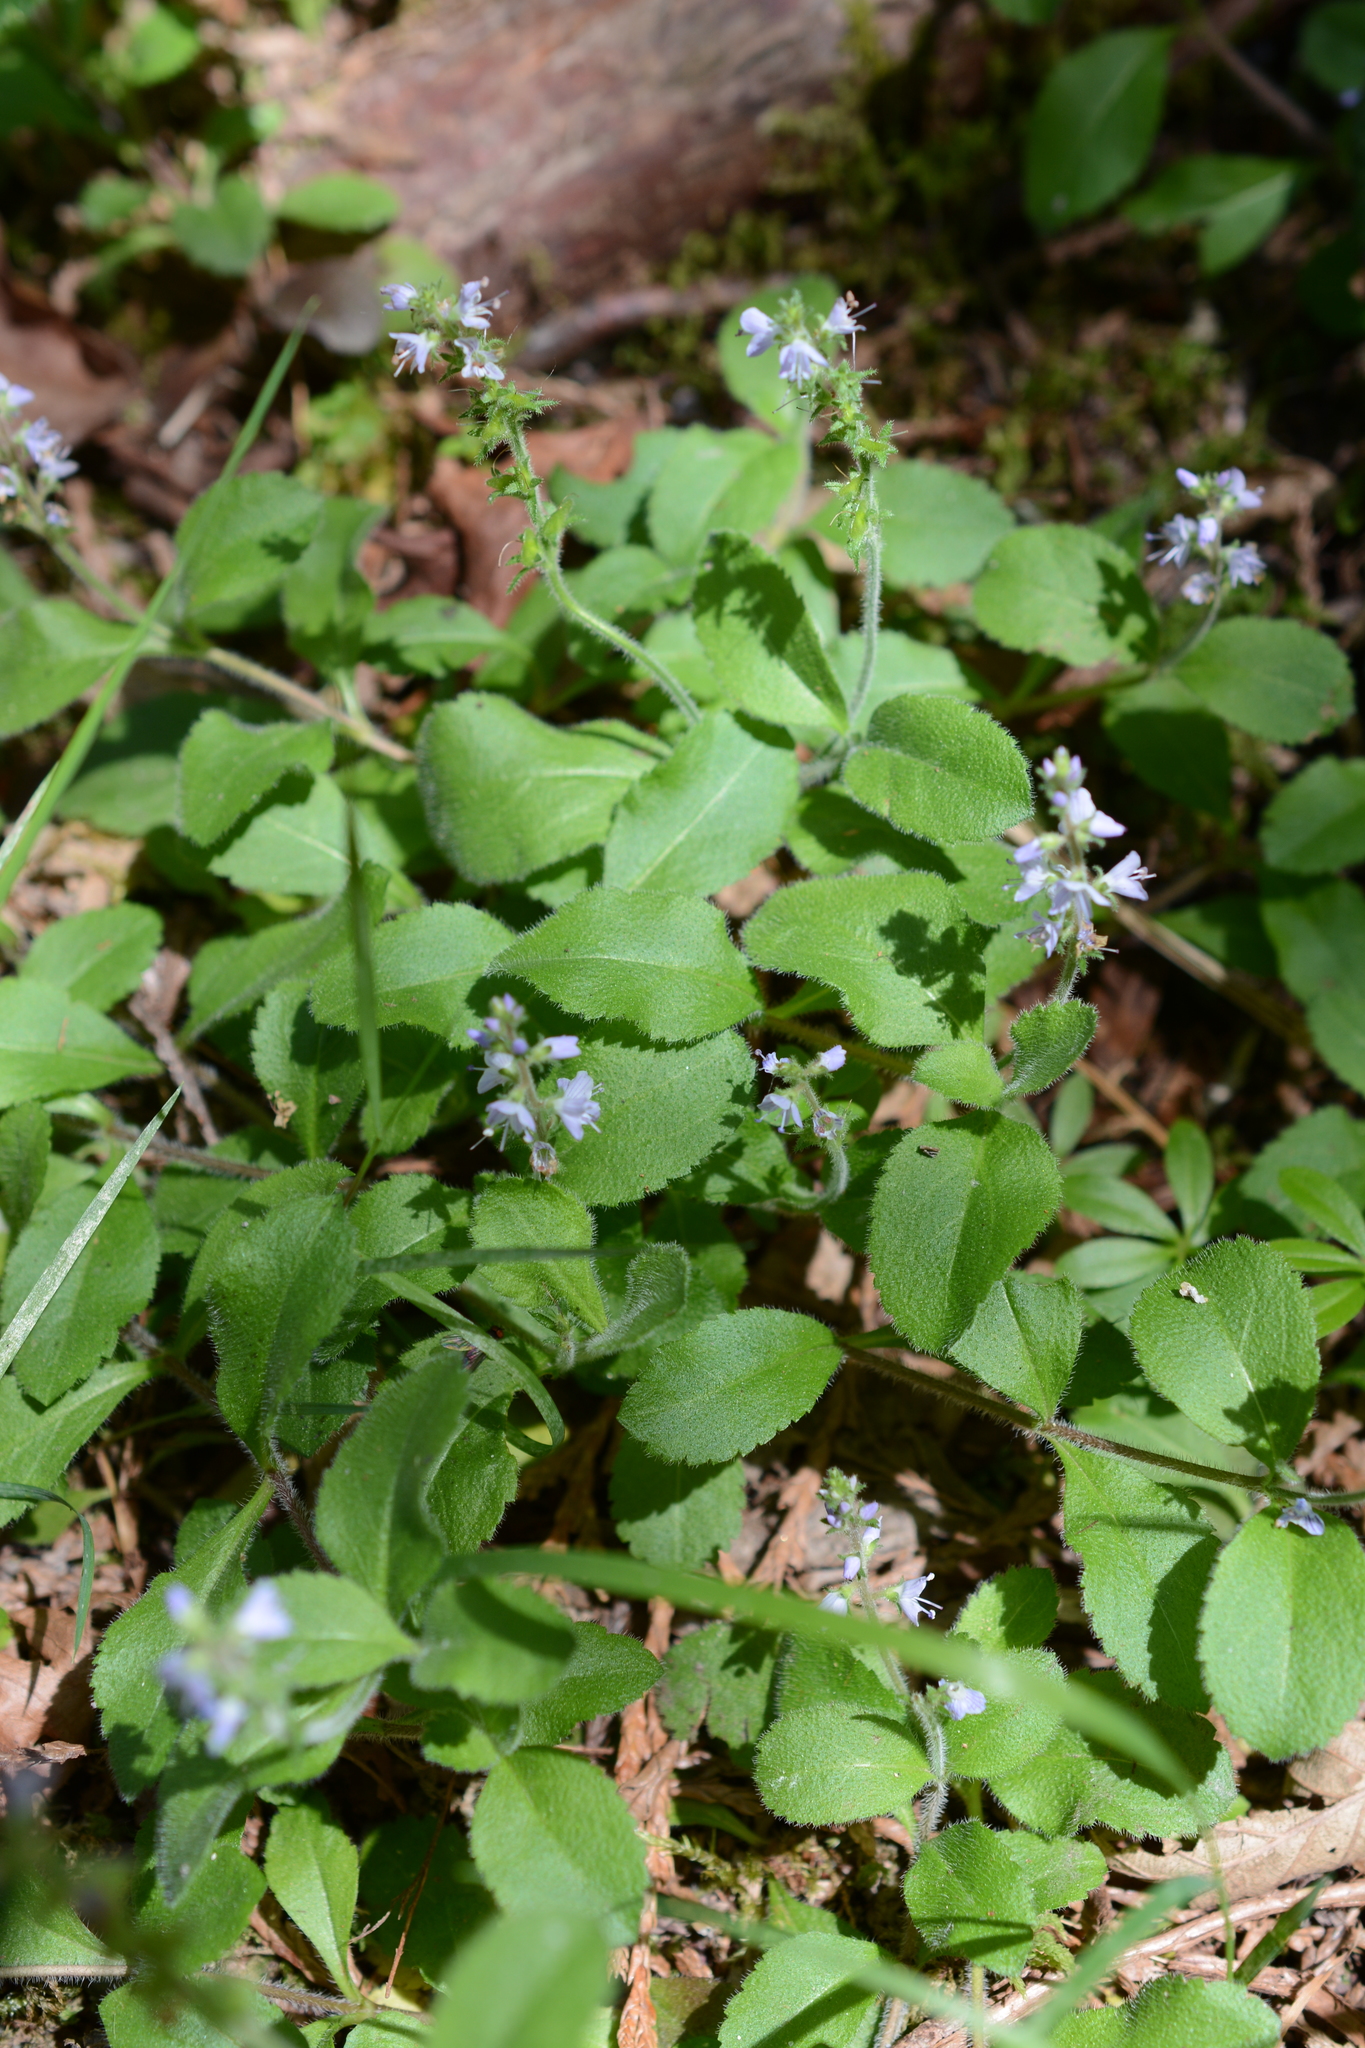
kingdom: Plantae
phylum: Tracheophyta
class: Magnoliopsida
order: Lamiales
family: Plantaginaceae
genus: Veronica
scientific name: Veronica officinalis
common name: Common speedwell
